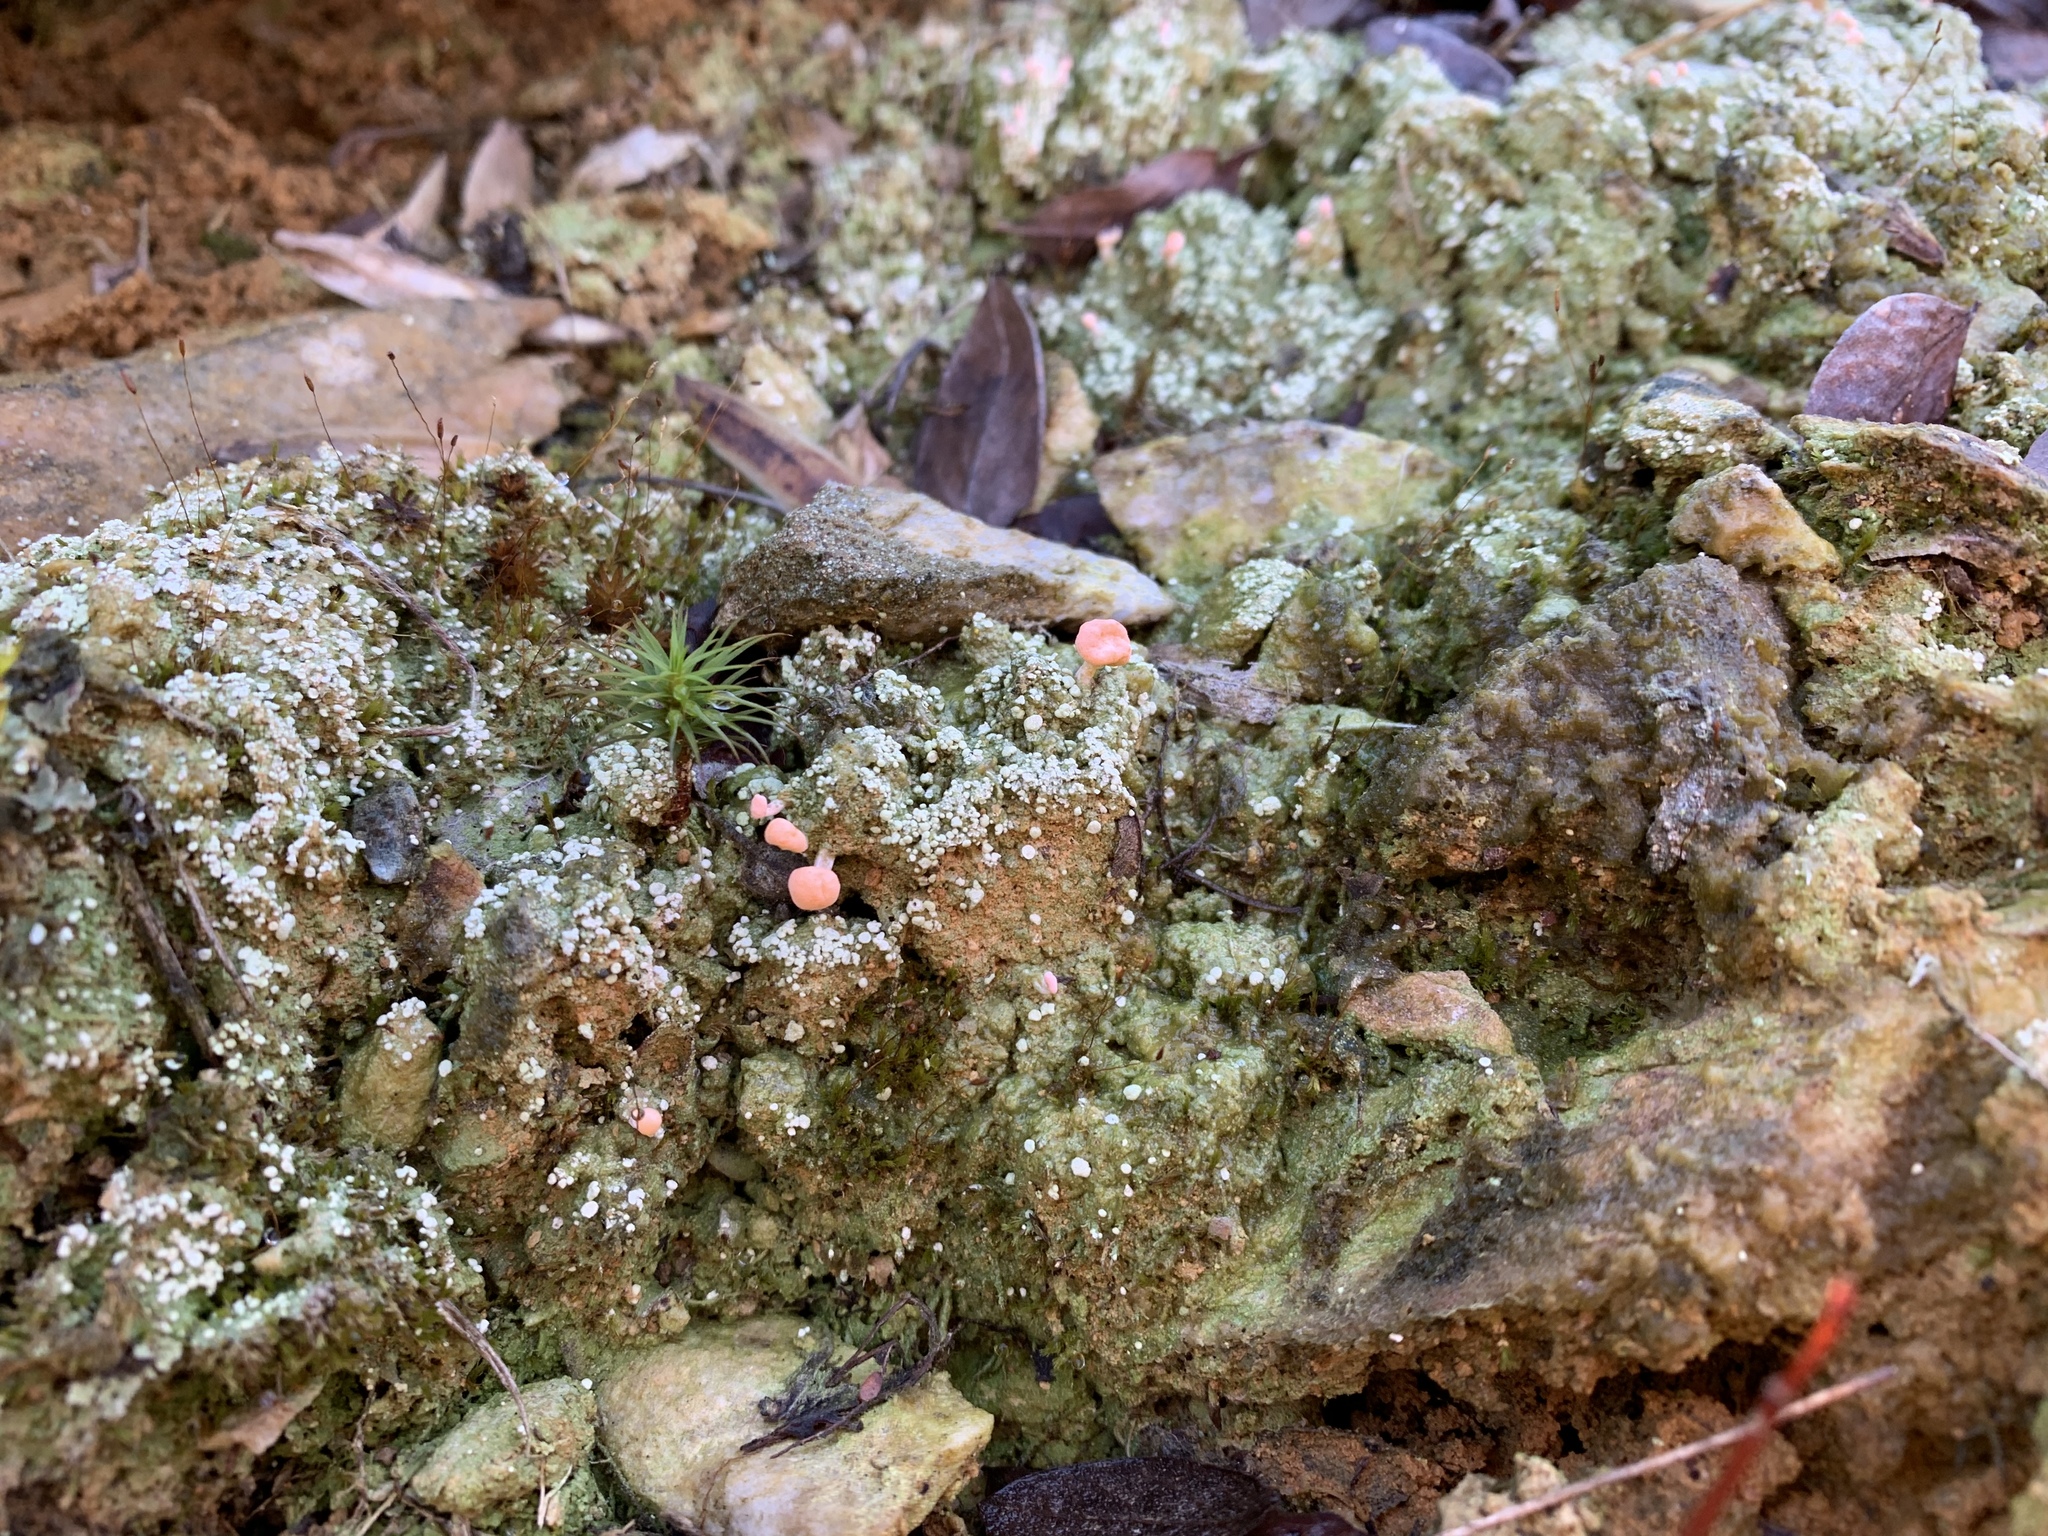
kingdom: Fungi
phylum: Ascomycota
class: Lecanoromycetes
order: Pertusariales
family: Icmadophilaceae
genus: Dibaeis
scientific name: Dibaeis baeomyces
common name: Pink earth lichen
